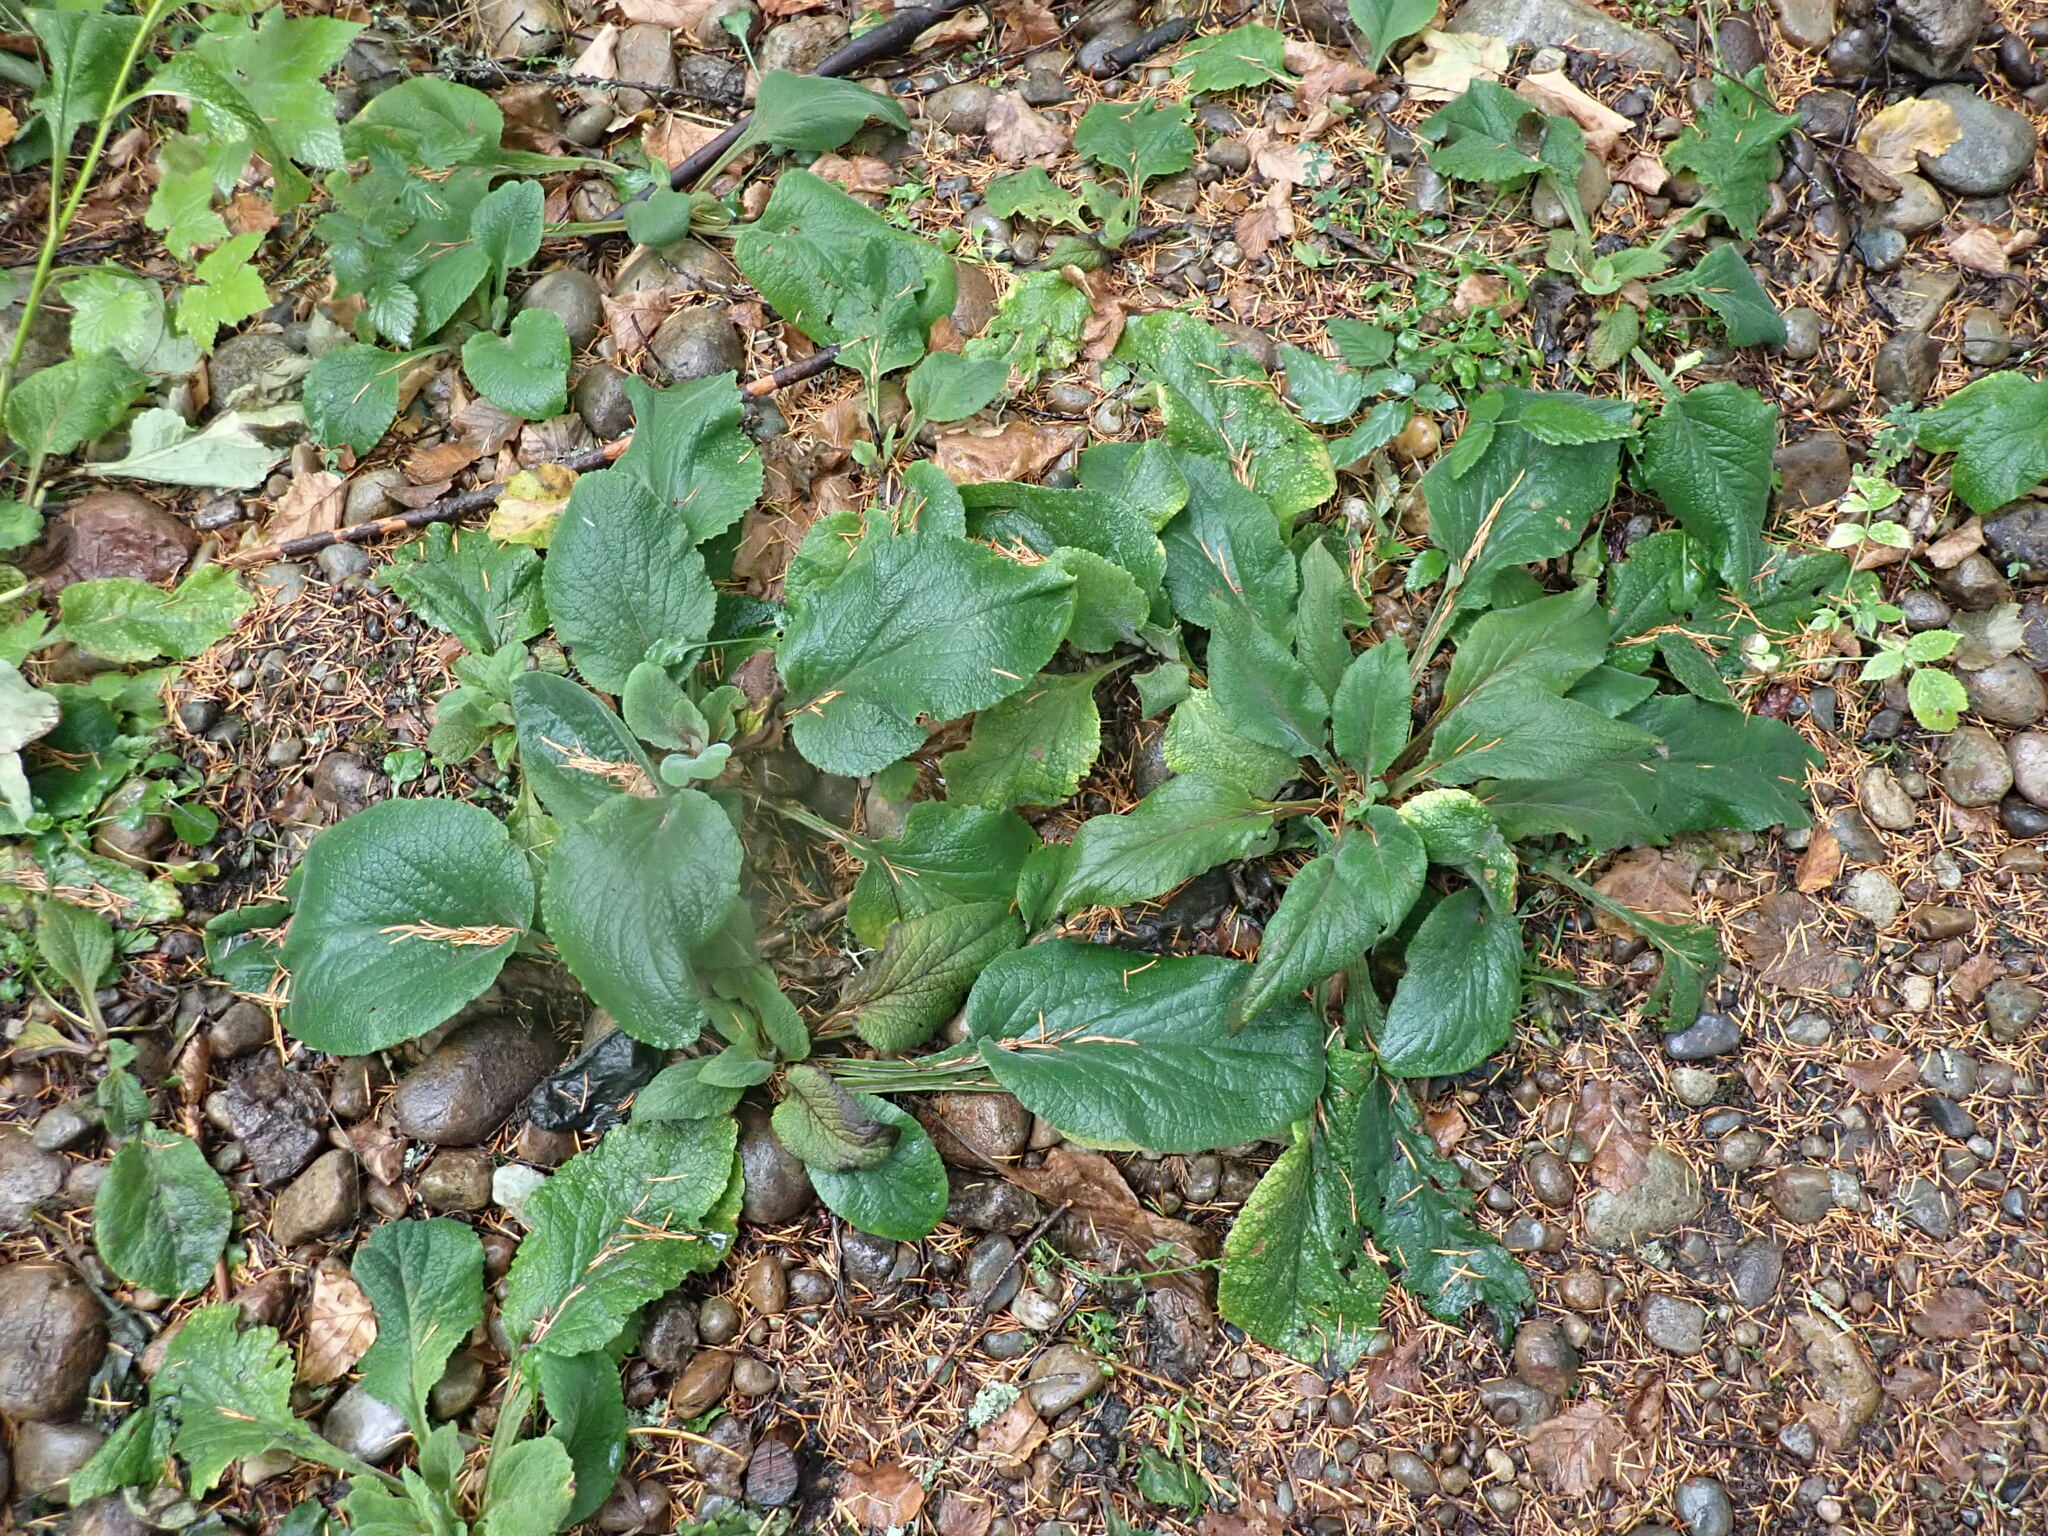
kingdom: Plantae
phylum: Tracheophyta
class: Magnoliopsida
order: Lamiales
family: Plantaginaceae
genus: Digitalis
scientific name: Digitalis purpurea
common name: Foxglove
